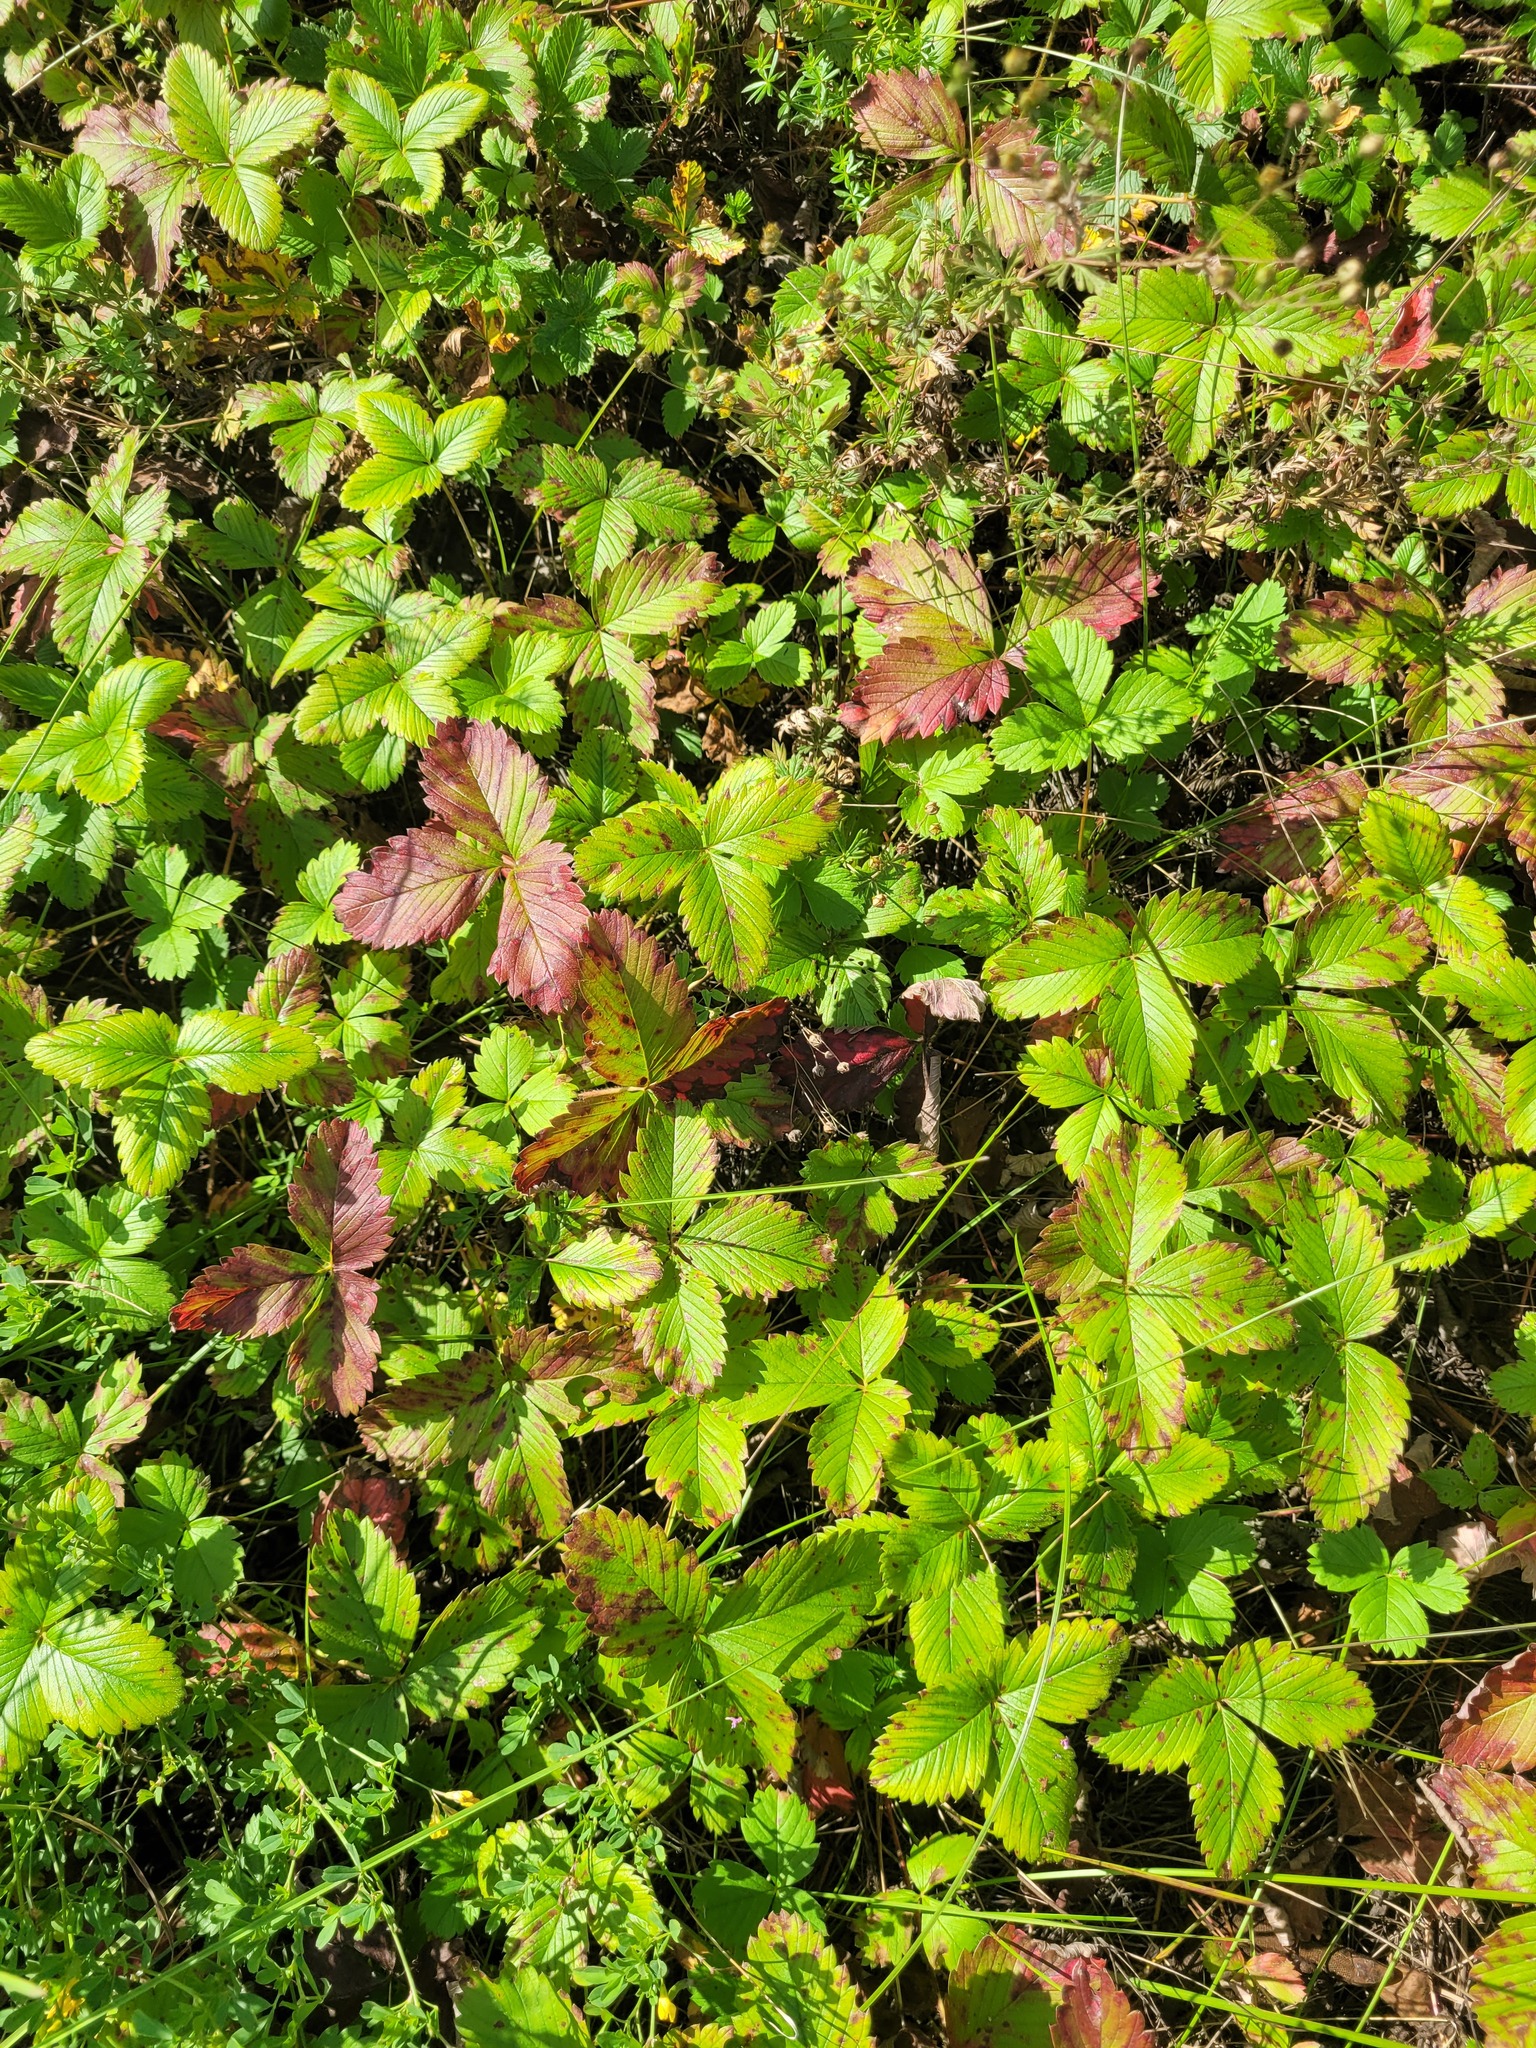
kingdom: Plantae
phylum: Tracheophyta
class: Magnoliopsida
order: Rosales
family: Rosaceae
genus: Fragaria
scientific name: Fragaria viridis
